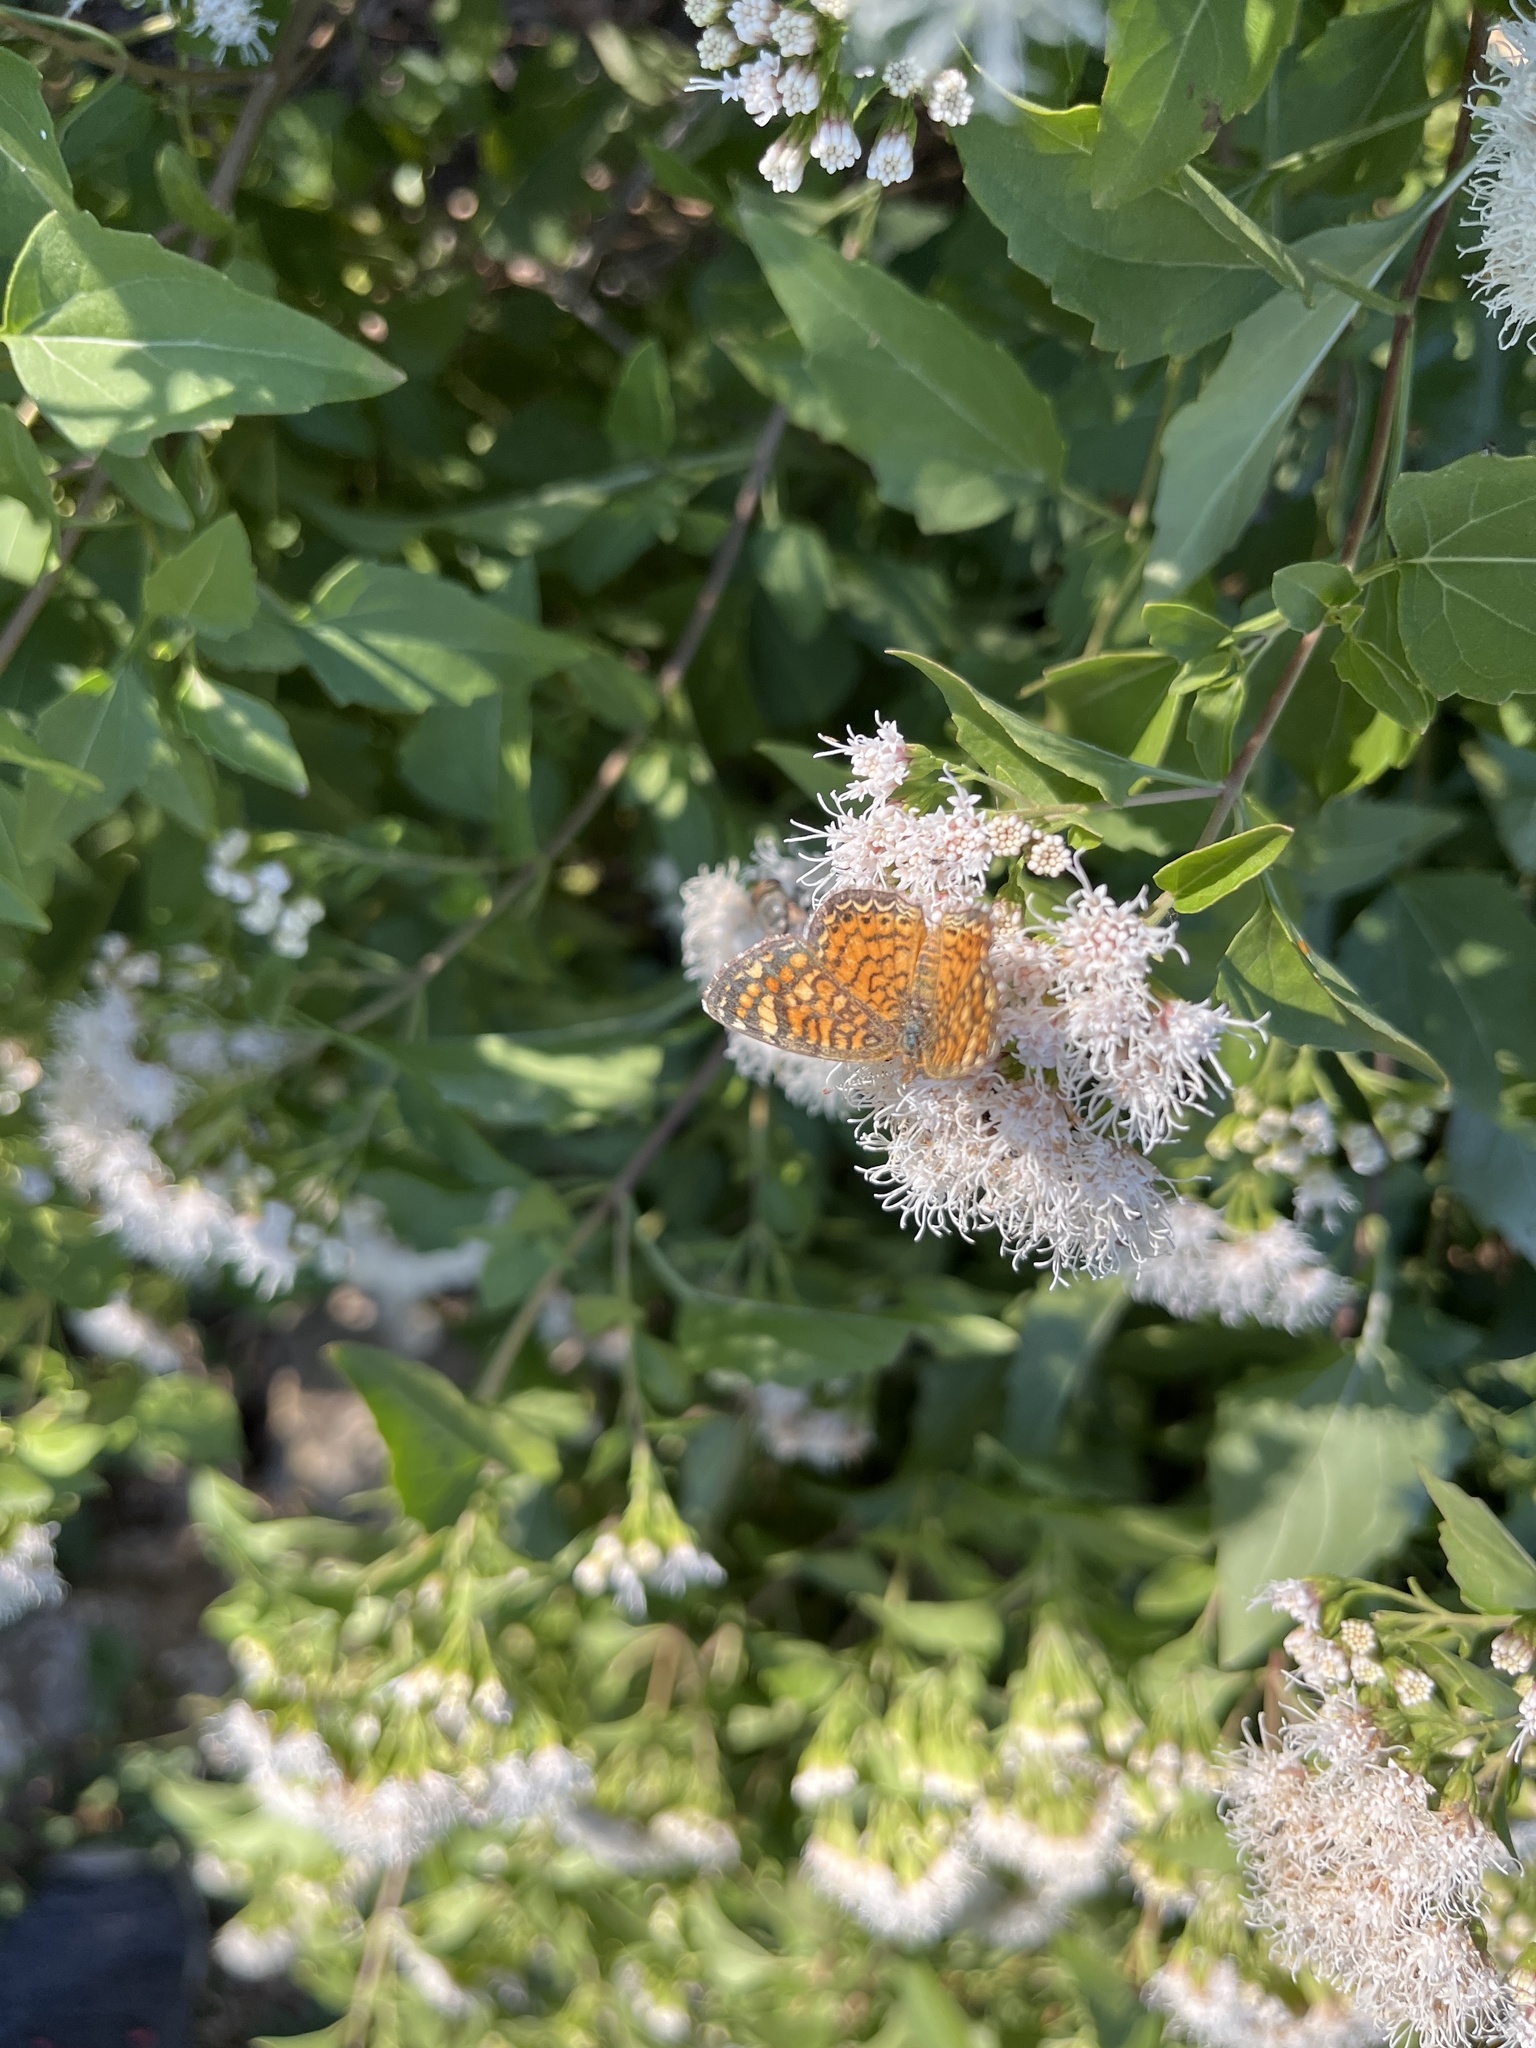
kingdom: Animalia
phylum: Arthropoda
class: Insecta
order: Lepidoptera
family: Nymphalidae
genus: Phyciodes
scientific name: Phyciodes vesta
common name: Vesta crescent
